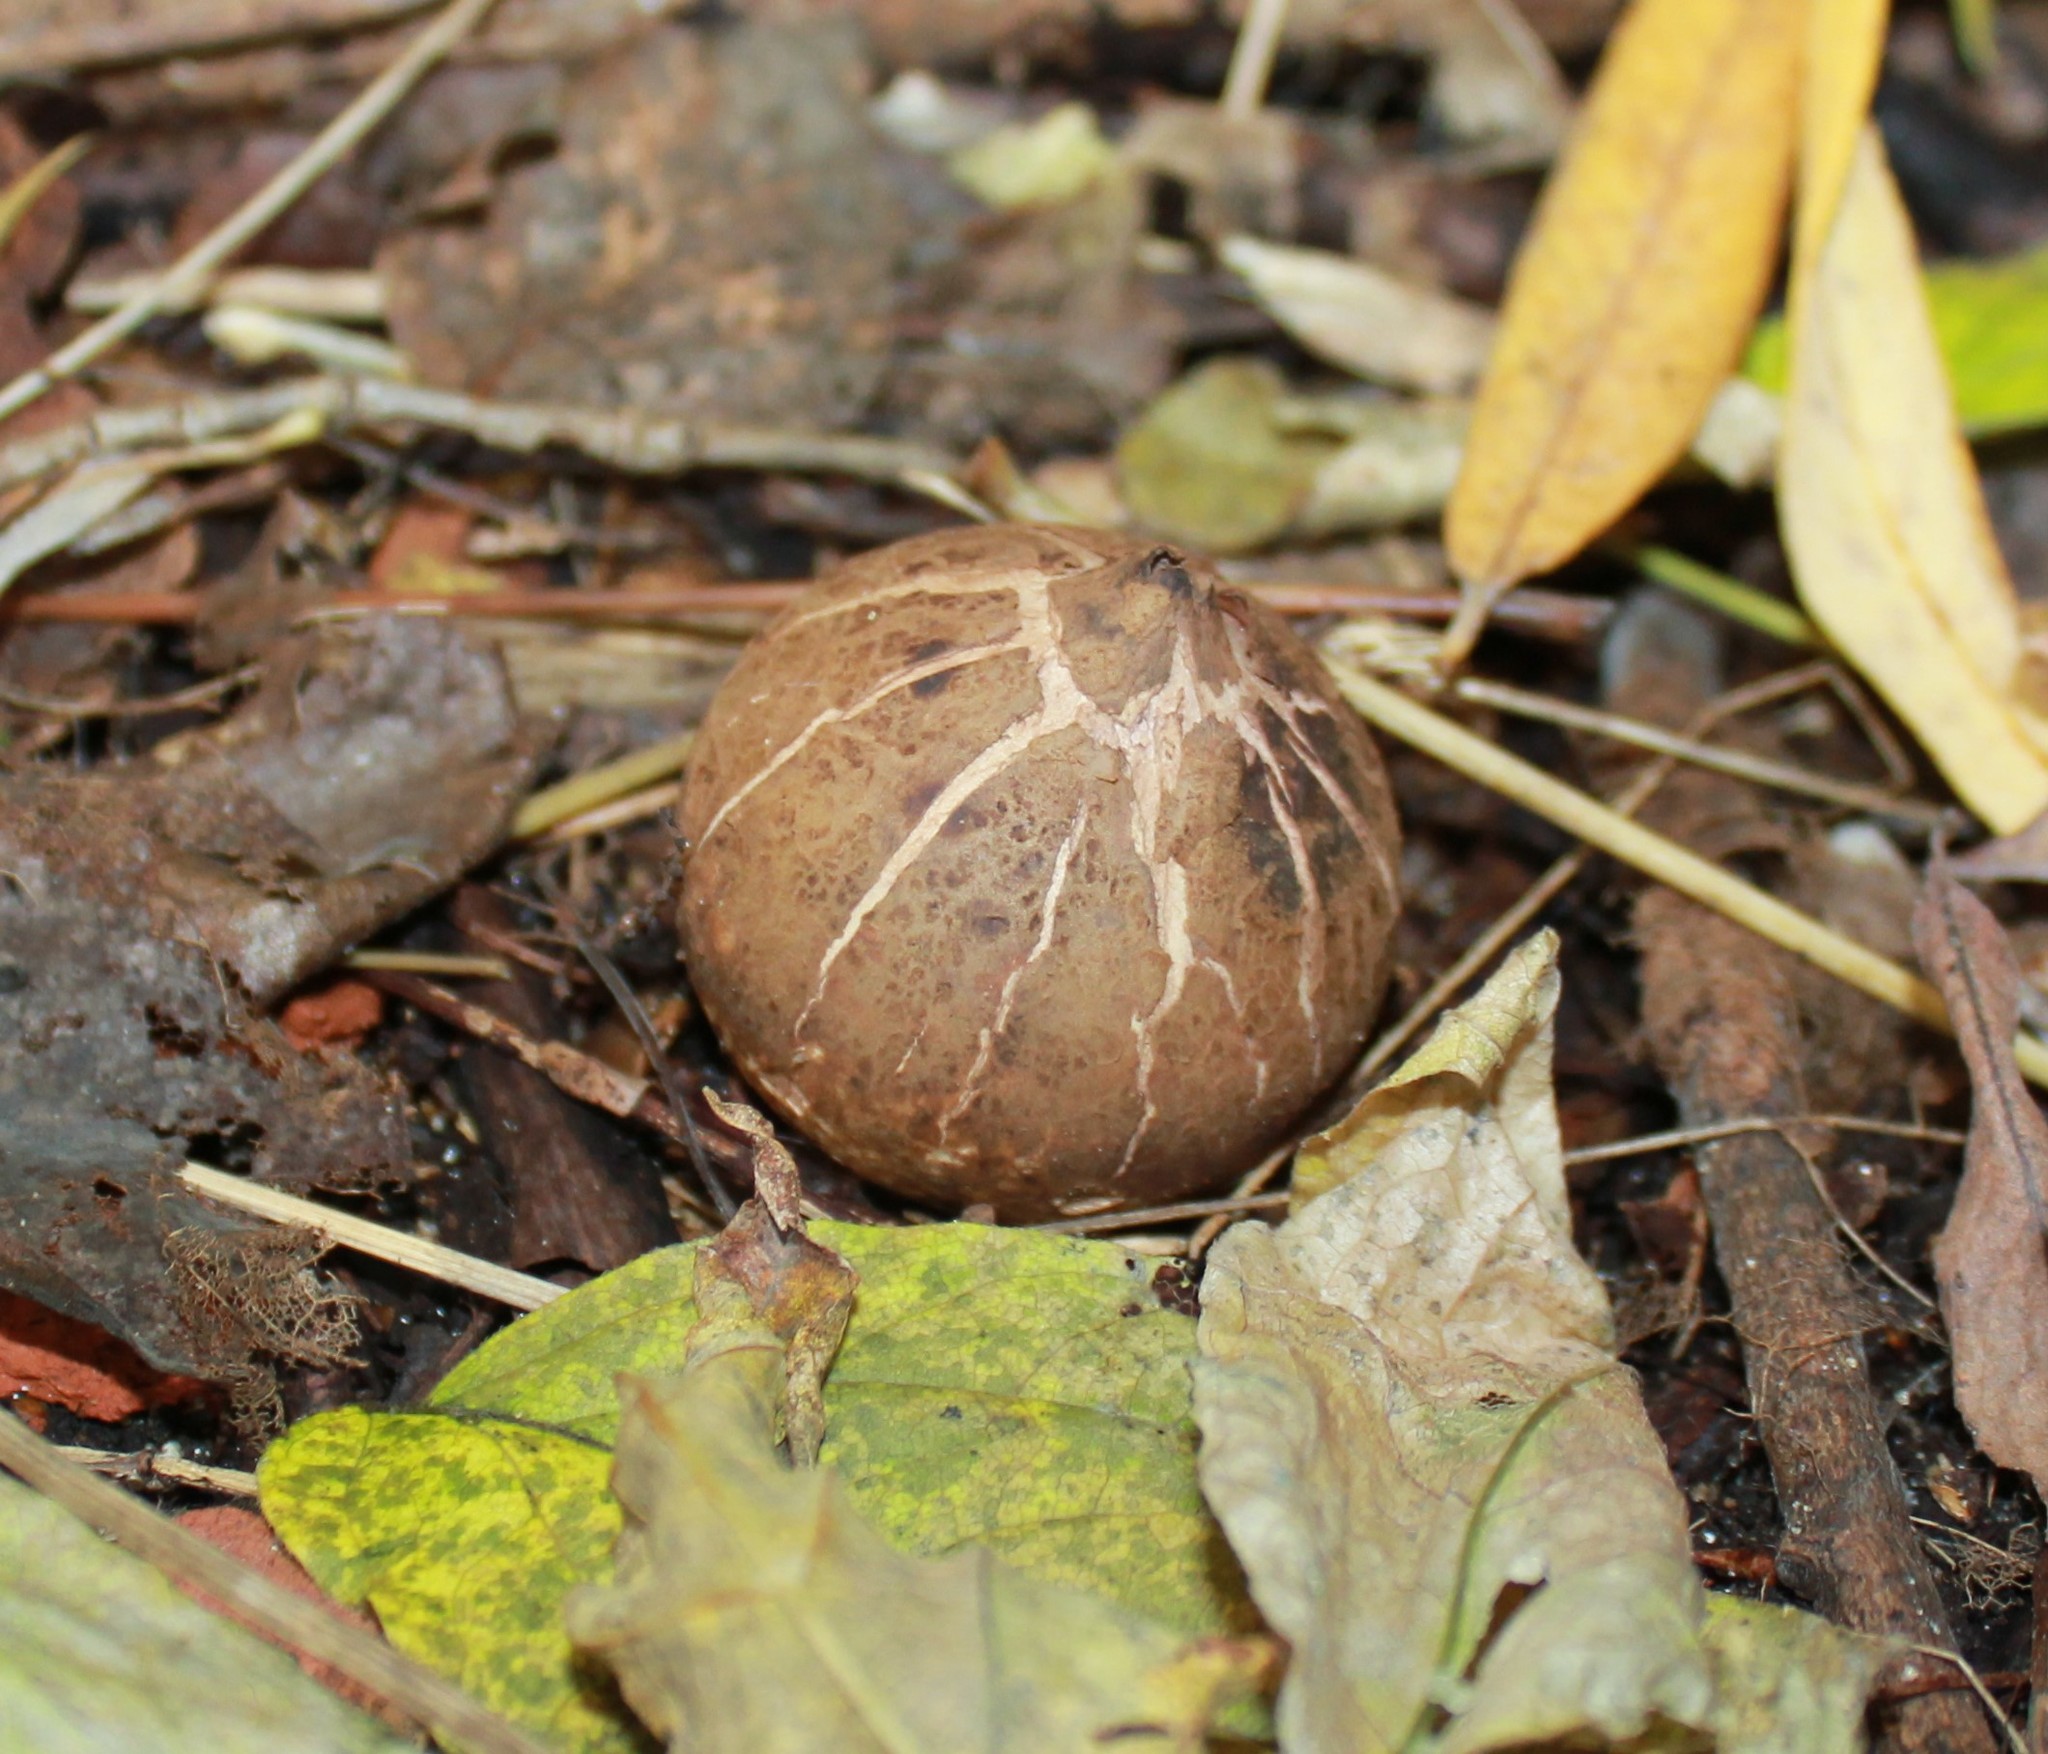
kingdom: Fungi
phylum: Basidiomycota
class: Agaricomycetes
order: Geastrales
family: Geastraceae
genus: Geastrum
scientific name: Geastrum
